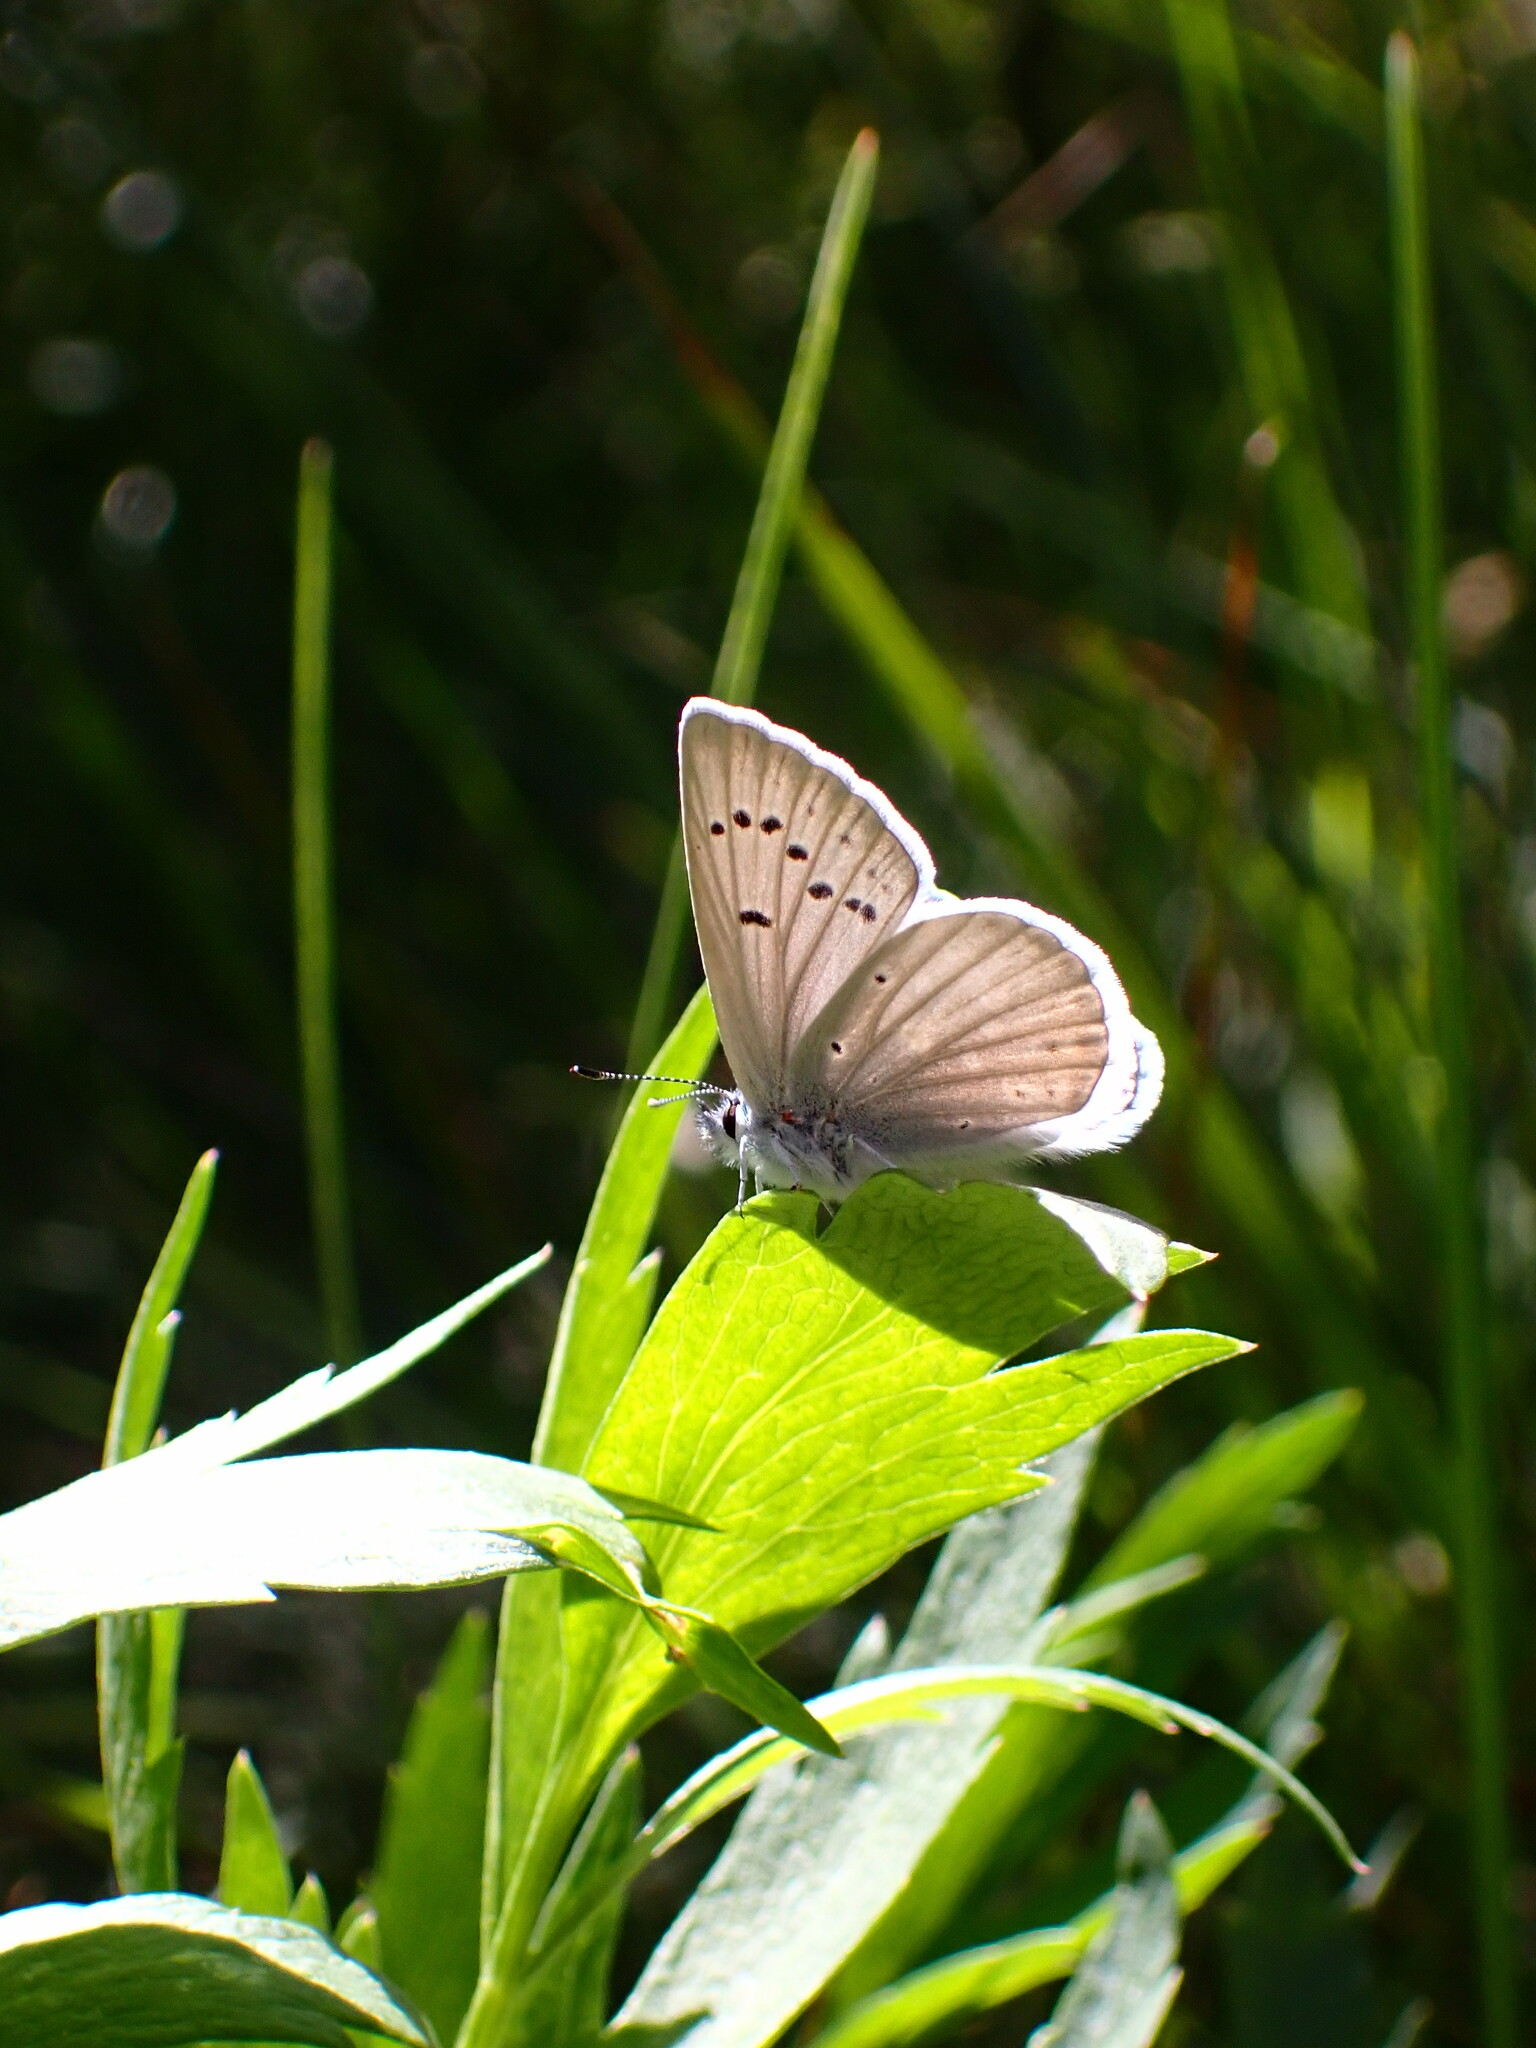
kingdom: Animalia
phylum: Arthropoda
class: Insecta
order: Lepidoptera
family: Lycaenidae
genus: Icaricia
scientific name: Icaricia icarioides
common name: Boisduval's blue
